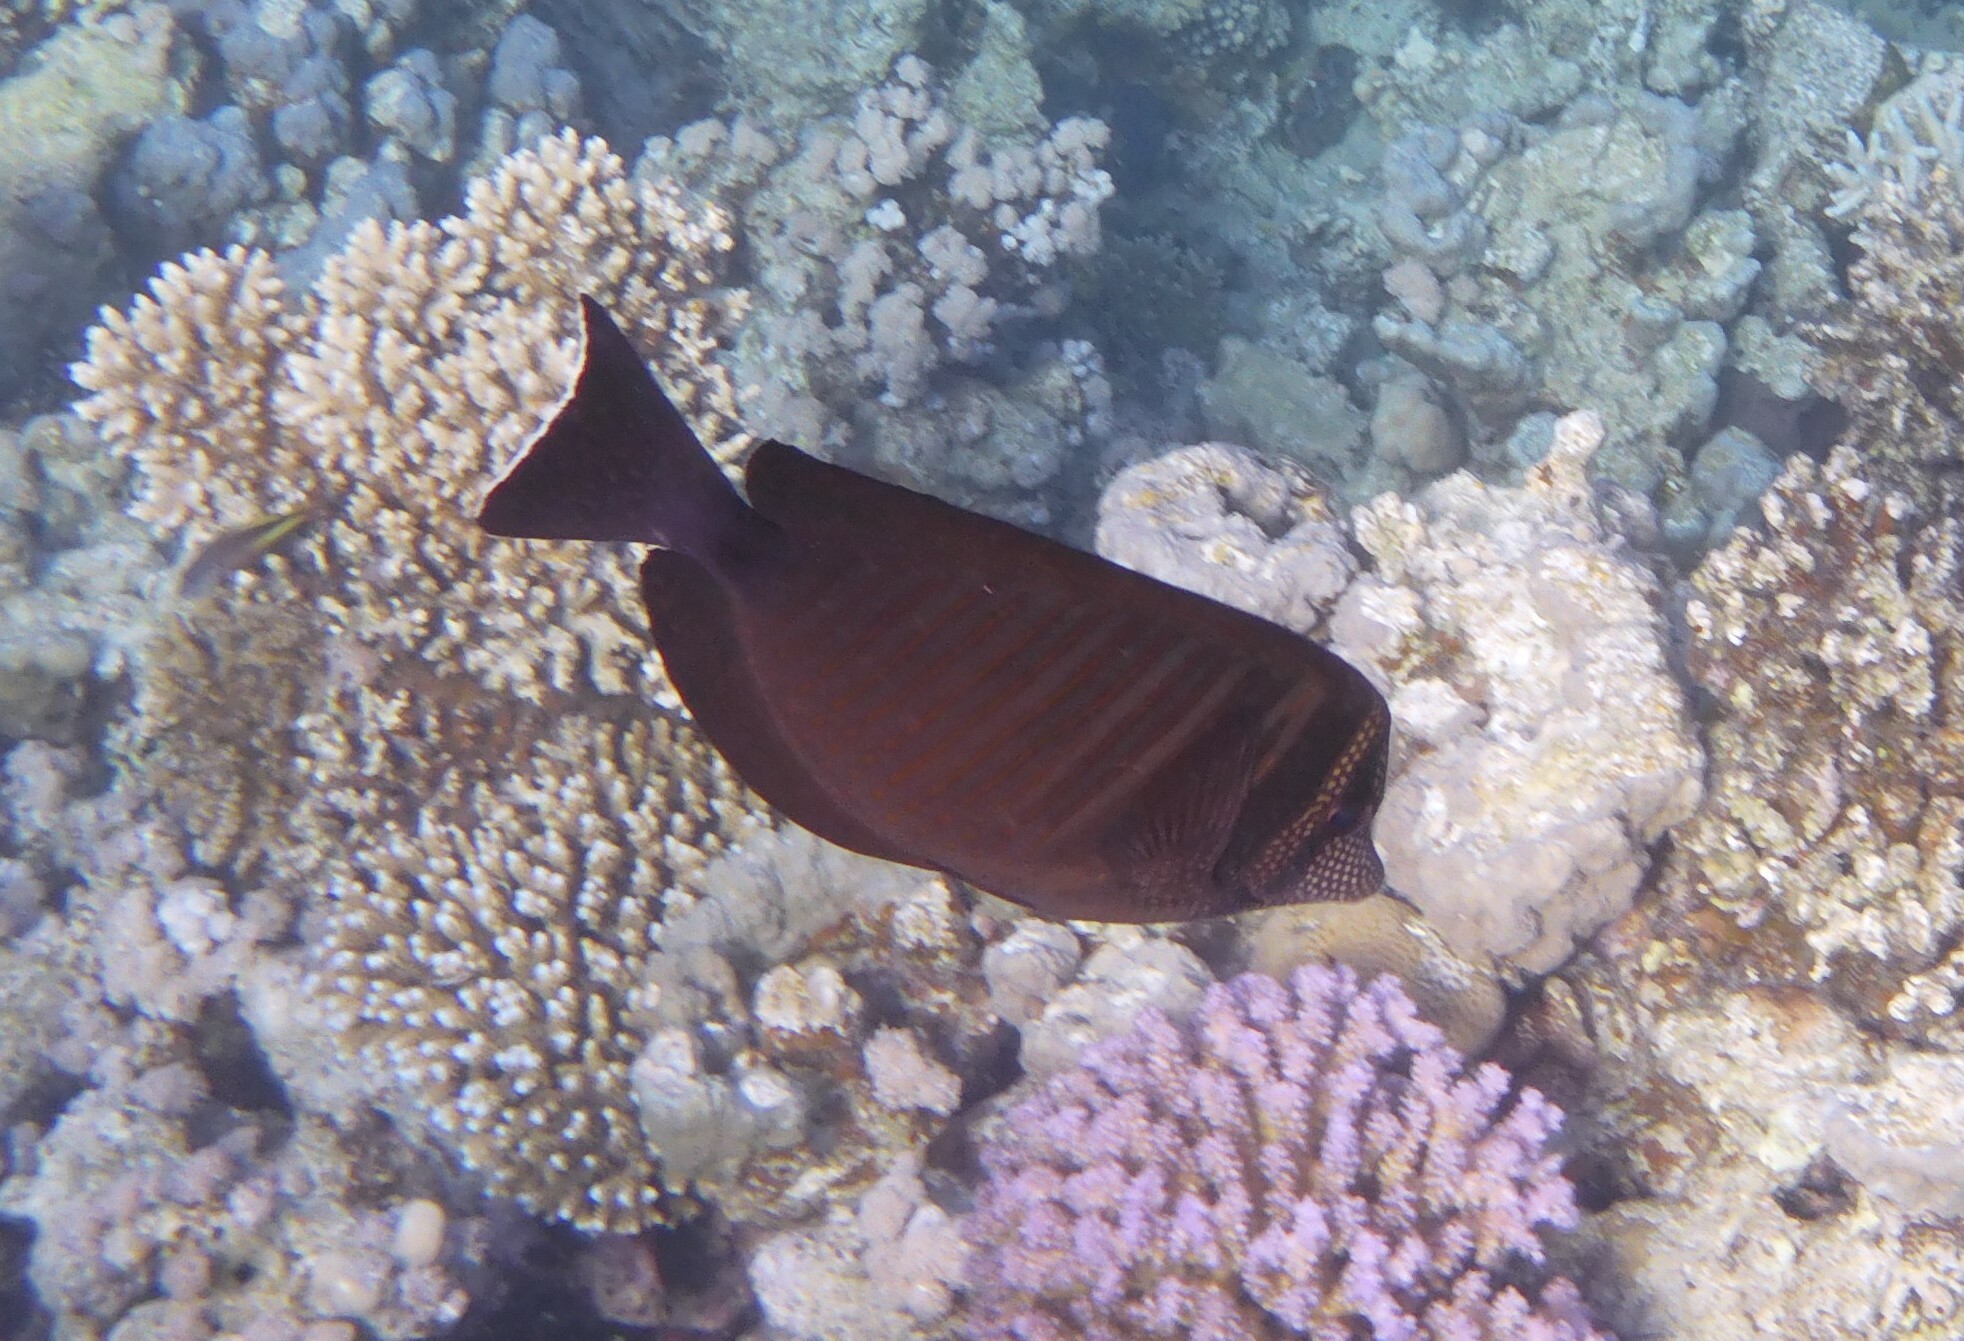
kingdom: Animalia
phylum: Chordata
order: Perciformes
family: Acanthuridae
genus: Zebrasoma
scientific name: Zebrasoma desjardinii
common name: Desjardin's sailfin tang
